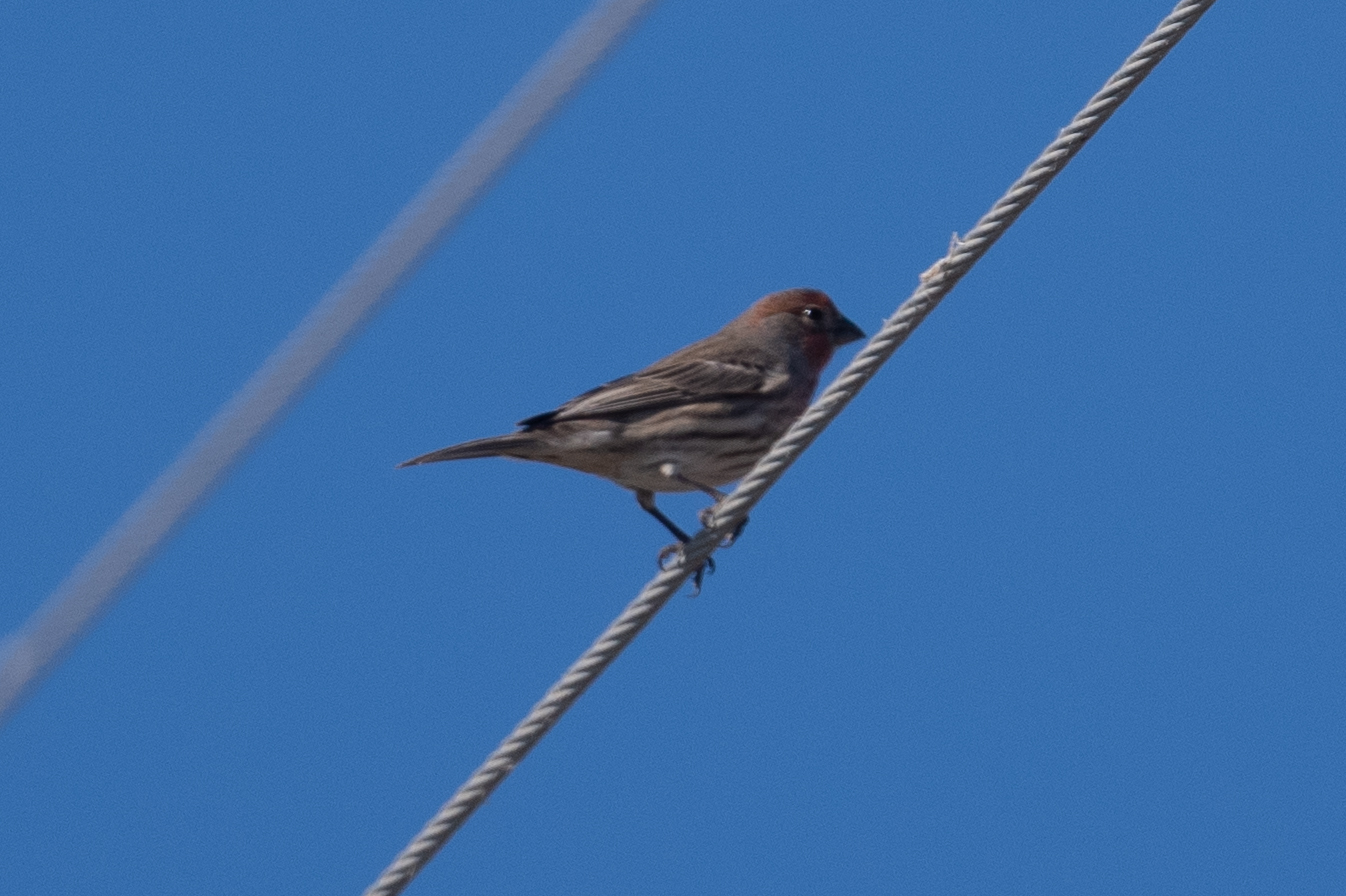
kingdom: Animalia
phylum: Chordata
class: Aves
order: Passeriformes
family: Fringillidae
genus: Haemorhous
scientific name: Haemorhous mexicanus
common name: House finch
